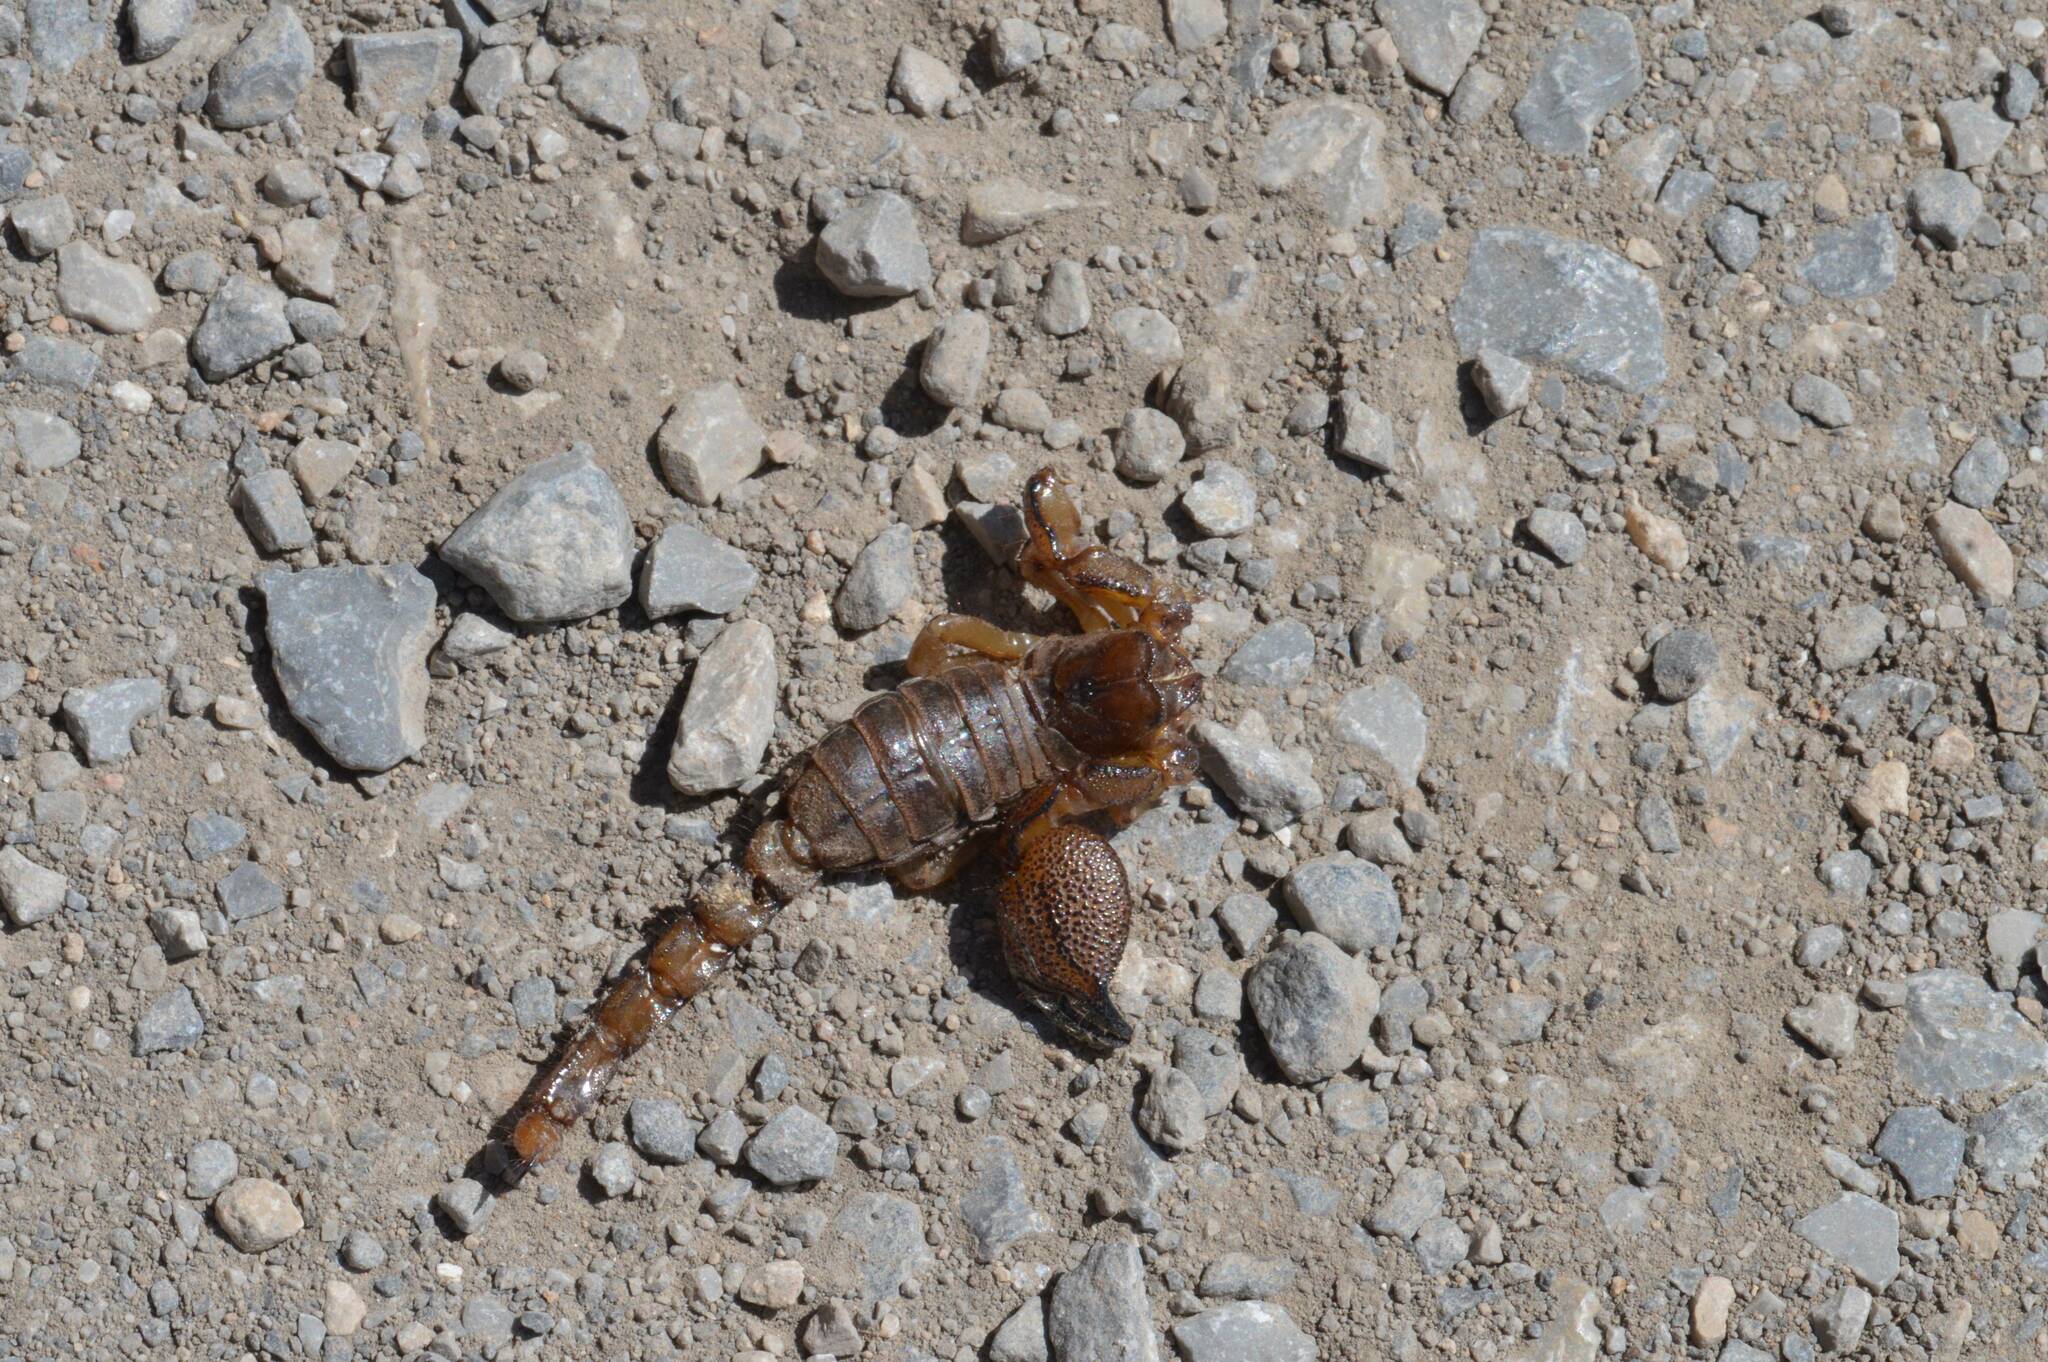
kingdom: Animalia
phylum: Arthropoda
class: Arachnida
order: Scorpiones
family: Scorpionidae
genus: Scorpio
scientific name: Scorpio maurus
